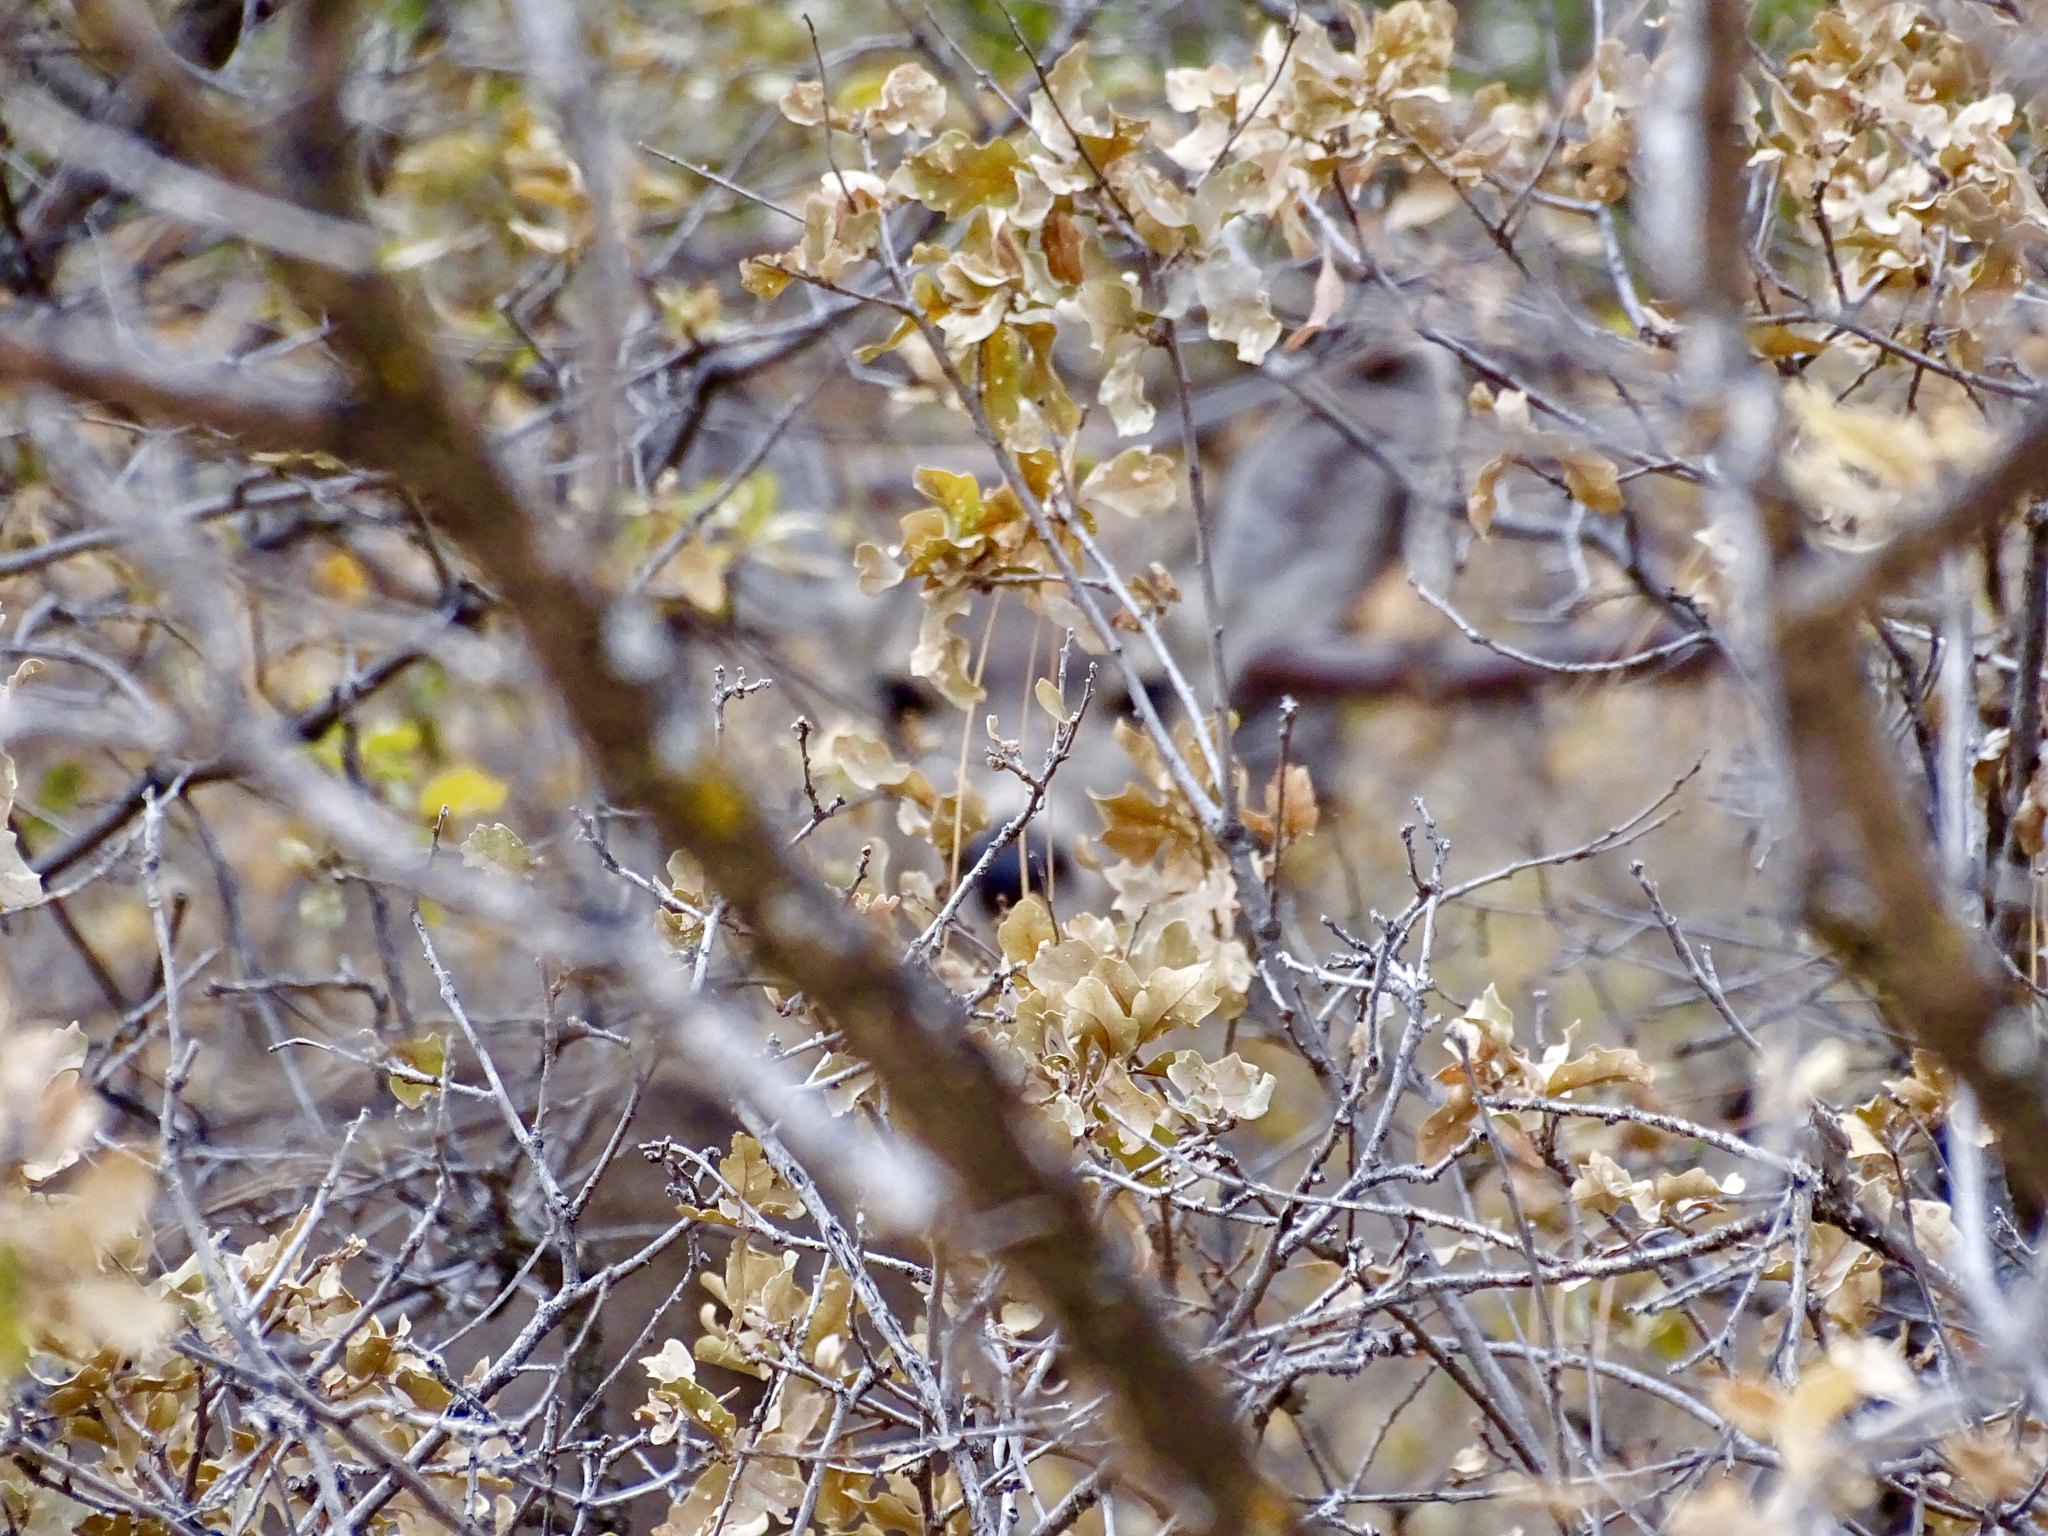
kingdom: Plantae
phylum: Tracheophyta
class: Magnoliopsida
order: Fagales
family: Fagaceae
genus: Quercus
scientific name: Quercus undulata
